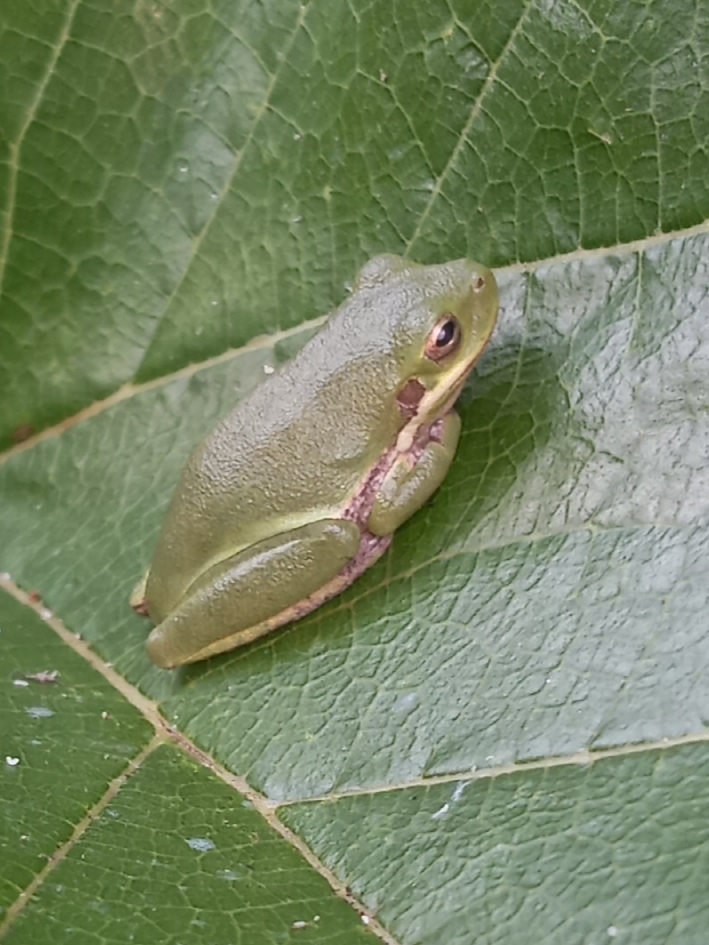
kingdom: Animalia
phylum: Chordata
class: Amphibia
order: Anura
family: Hylidae
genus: Dryophytes
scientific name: Dryophytes squirellus
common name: Squirrel treefrog
